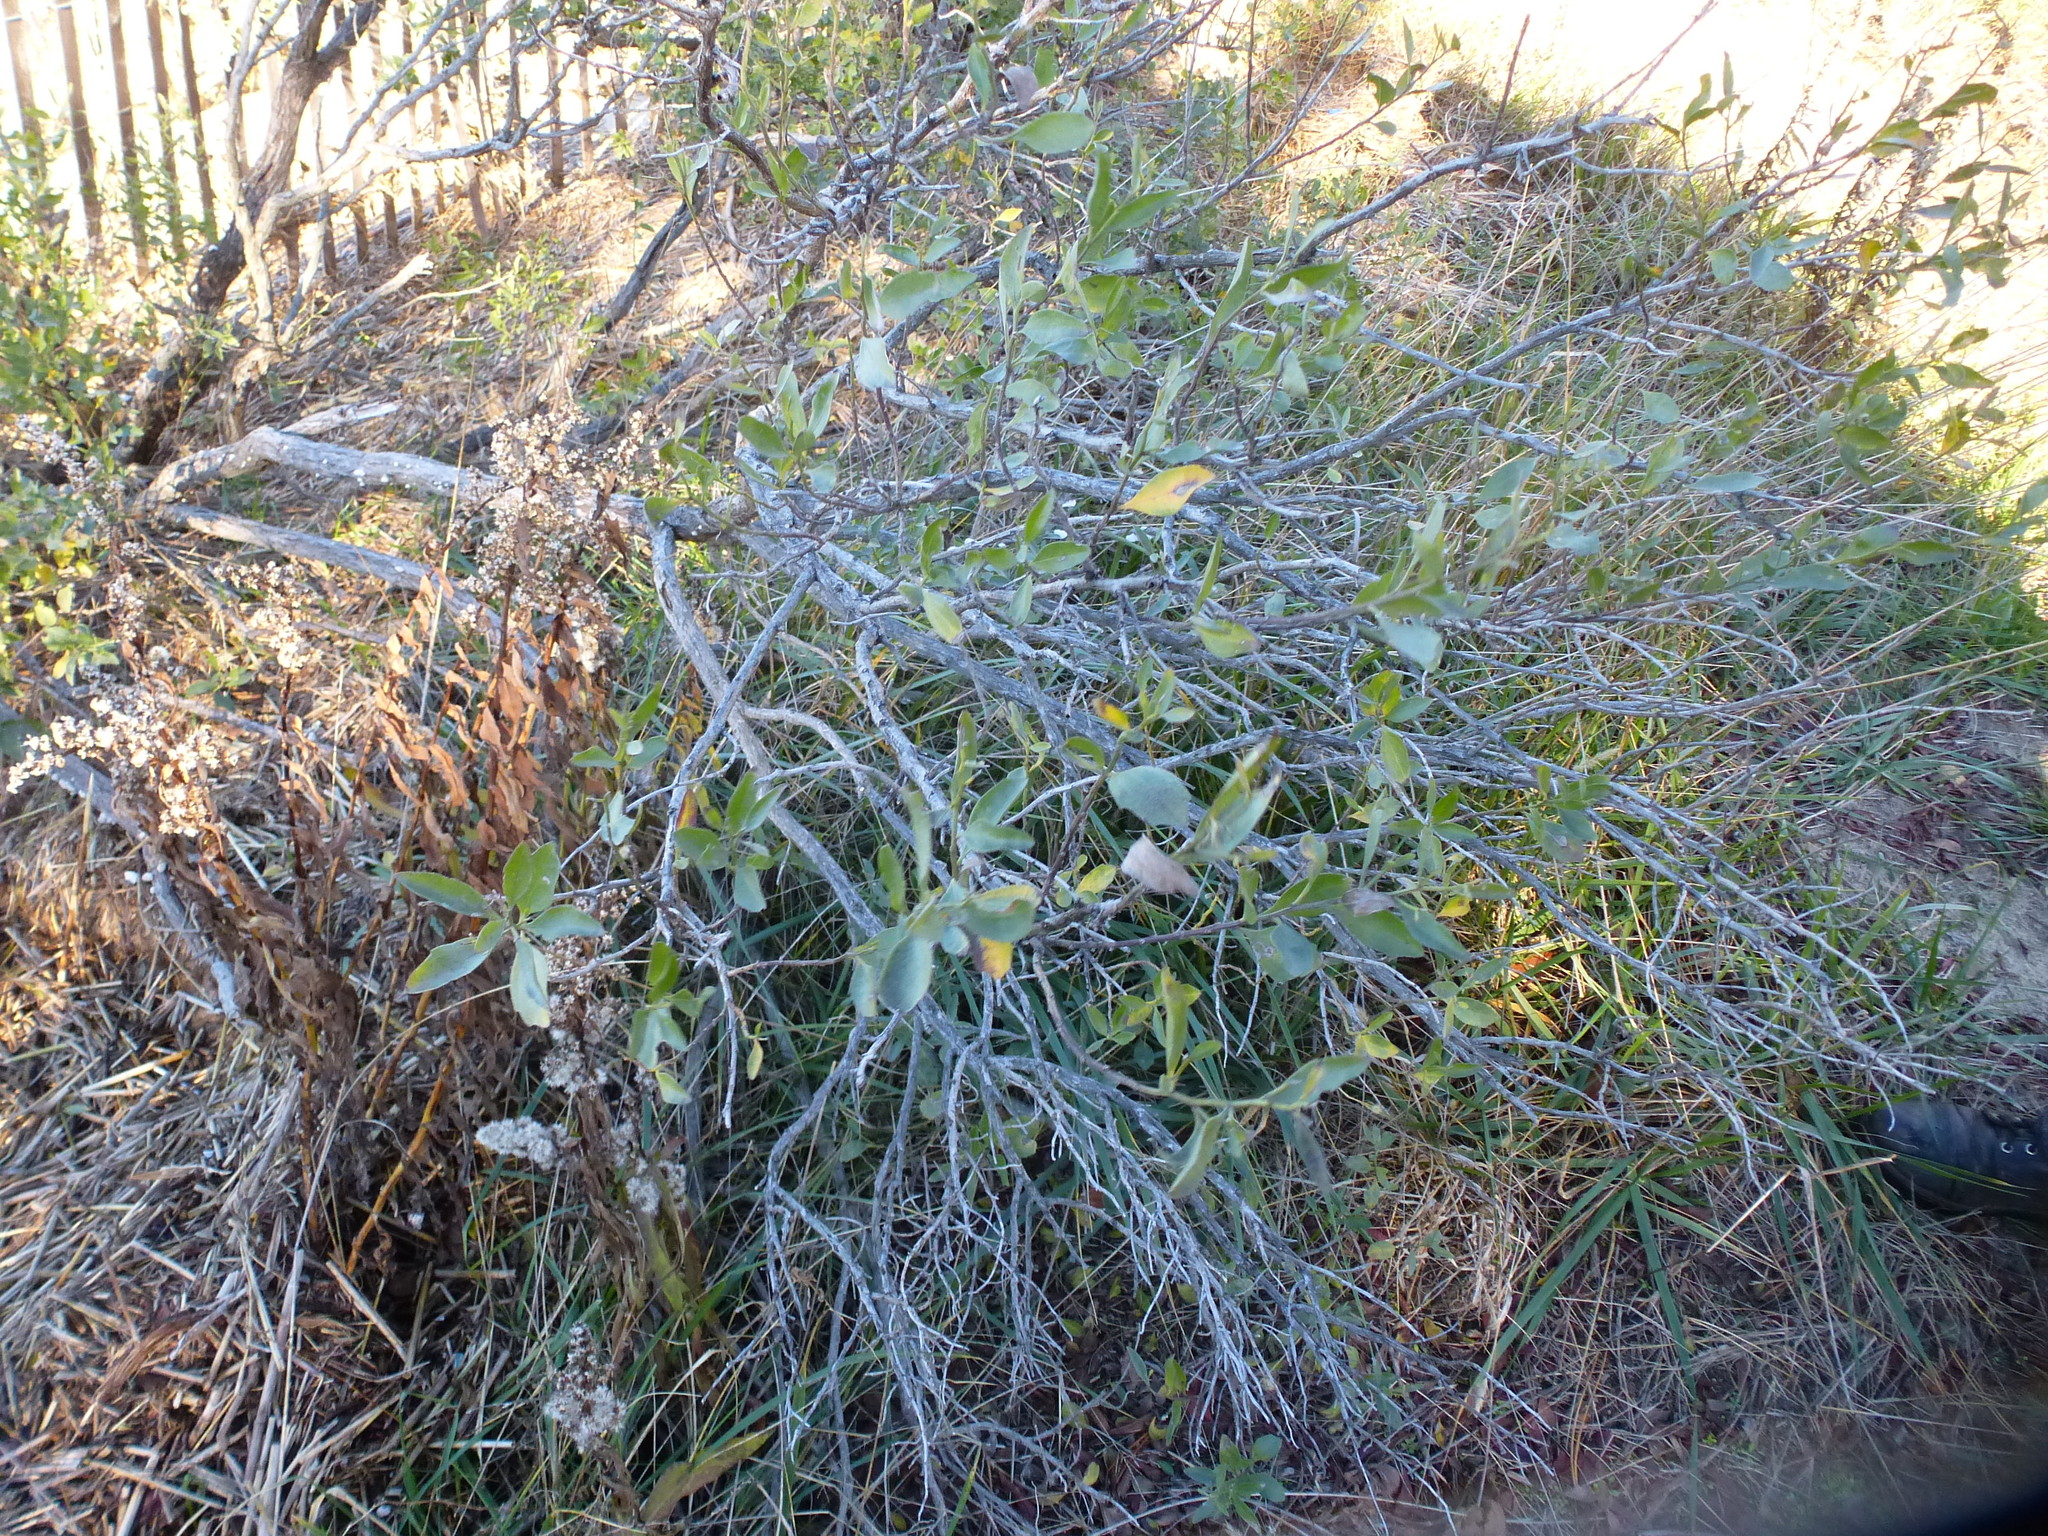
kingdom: Plantae
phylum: Tracheophyta
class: Magnoliopsida
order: Asterales
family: Asteraceae
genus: Baccharis
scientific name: Baccharis halimifolia
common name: Eastern baccharis
